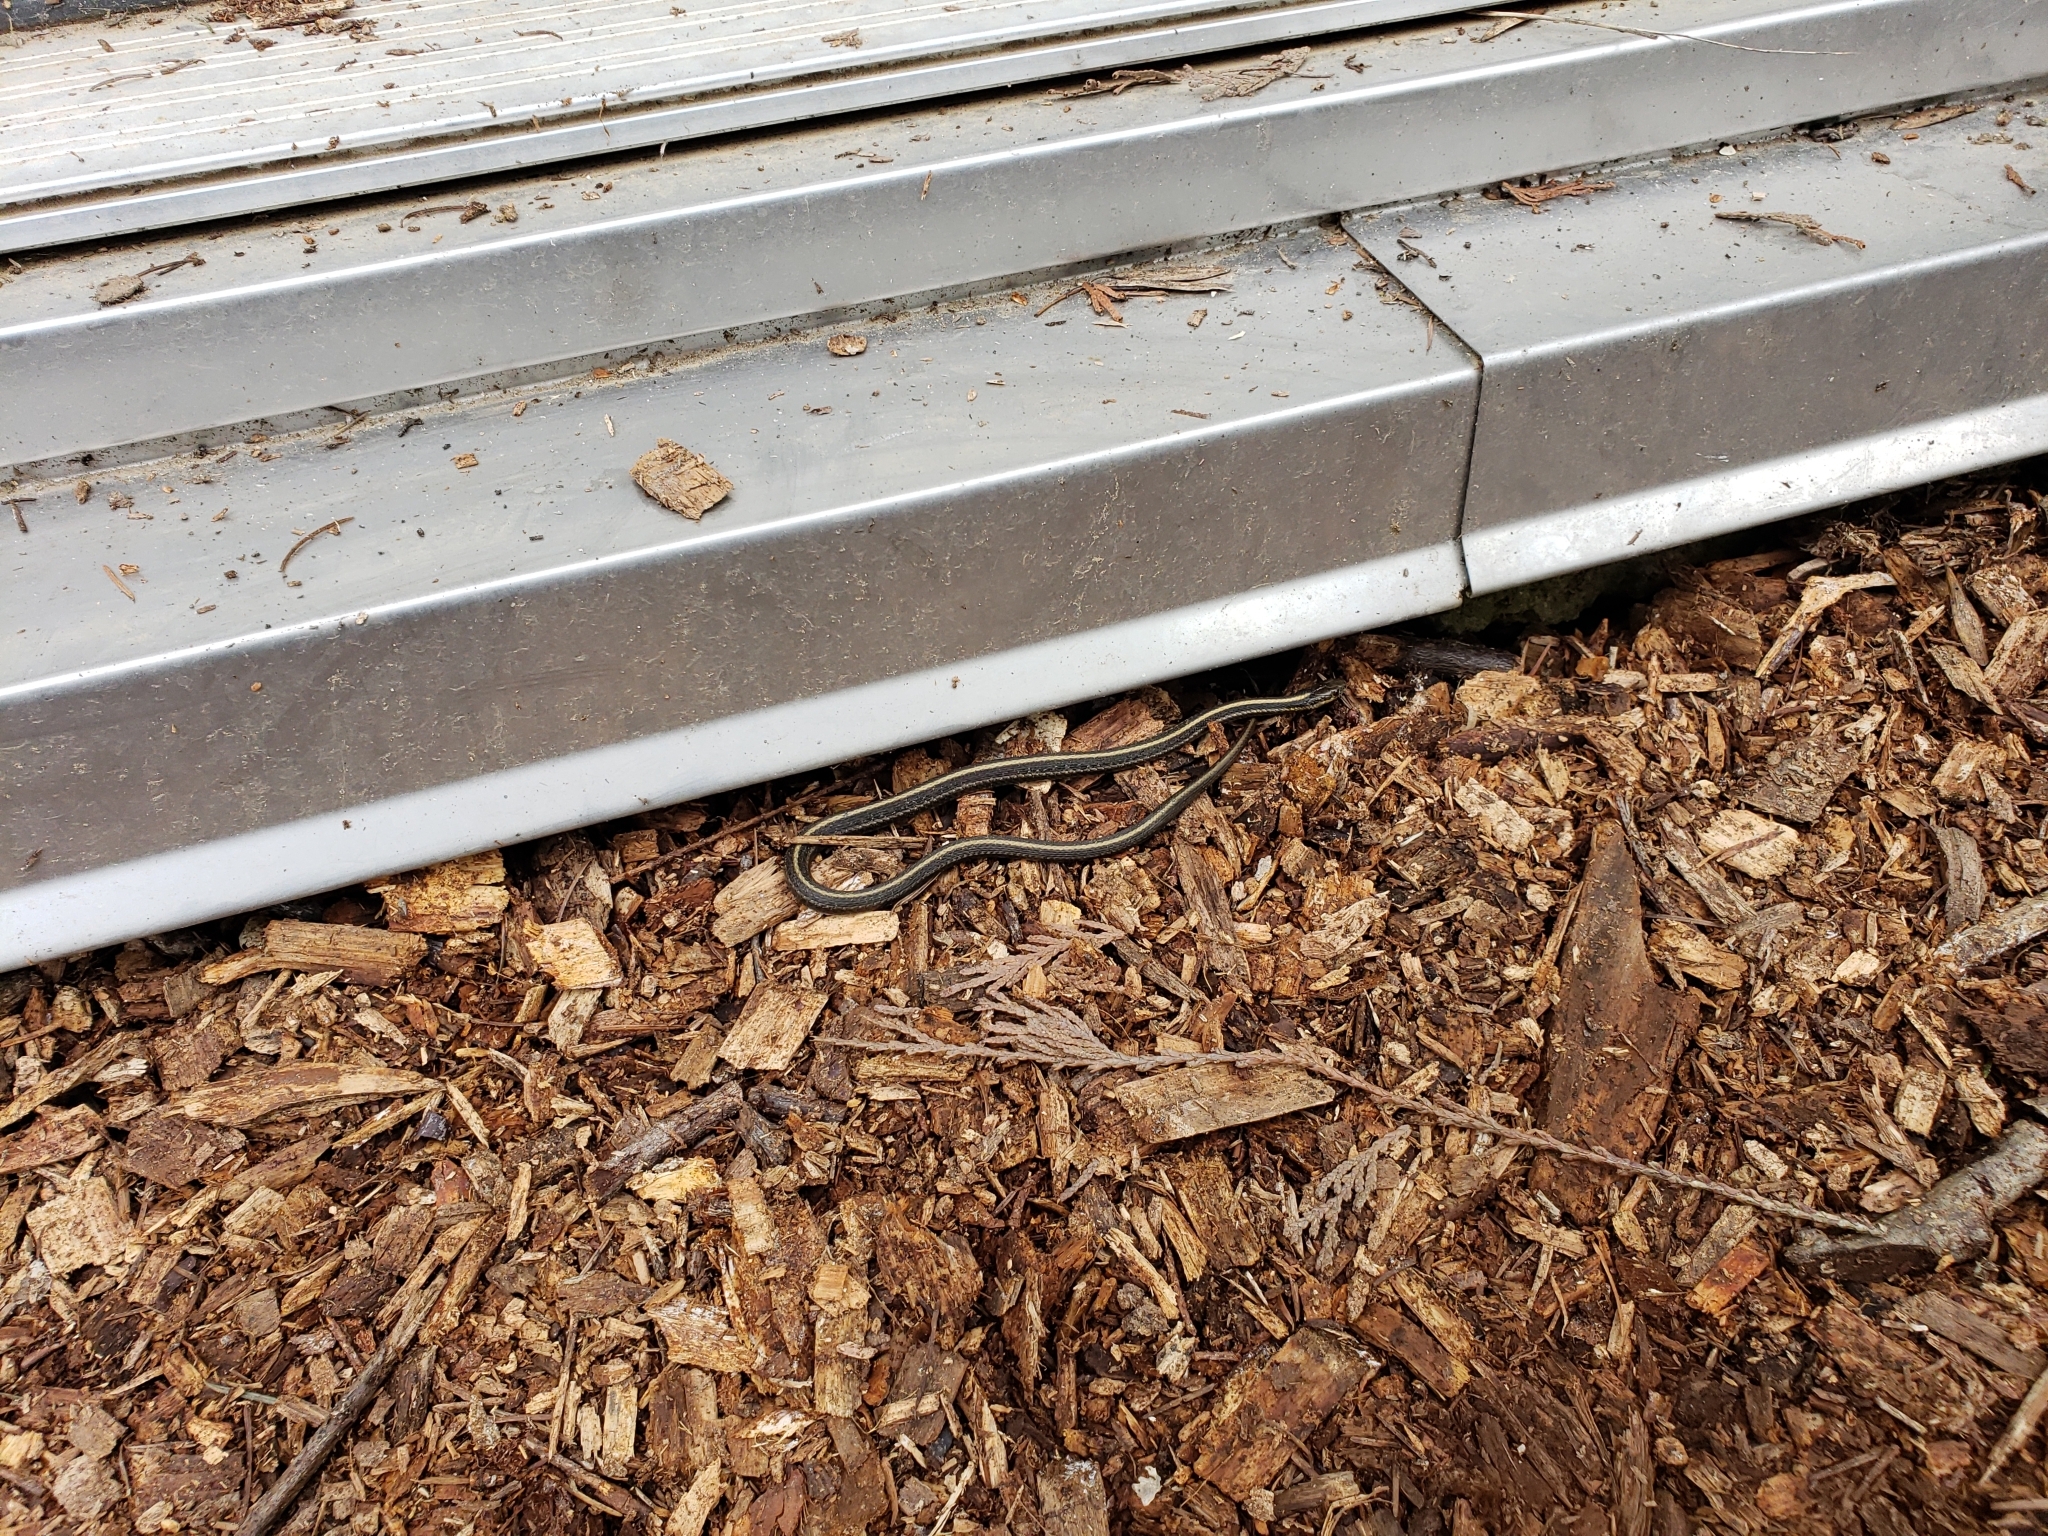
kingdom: Animalia
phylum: Chordata
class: Squamata
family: Colubridae
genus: Thamnophis
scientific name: Thamnophis ordinoides
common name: Northwestern garter snake
